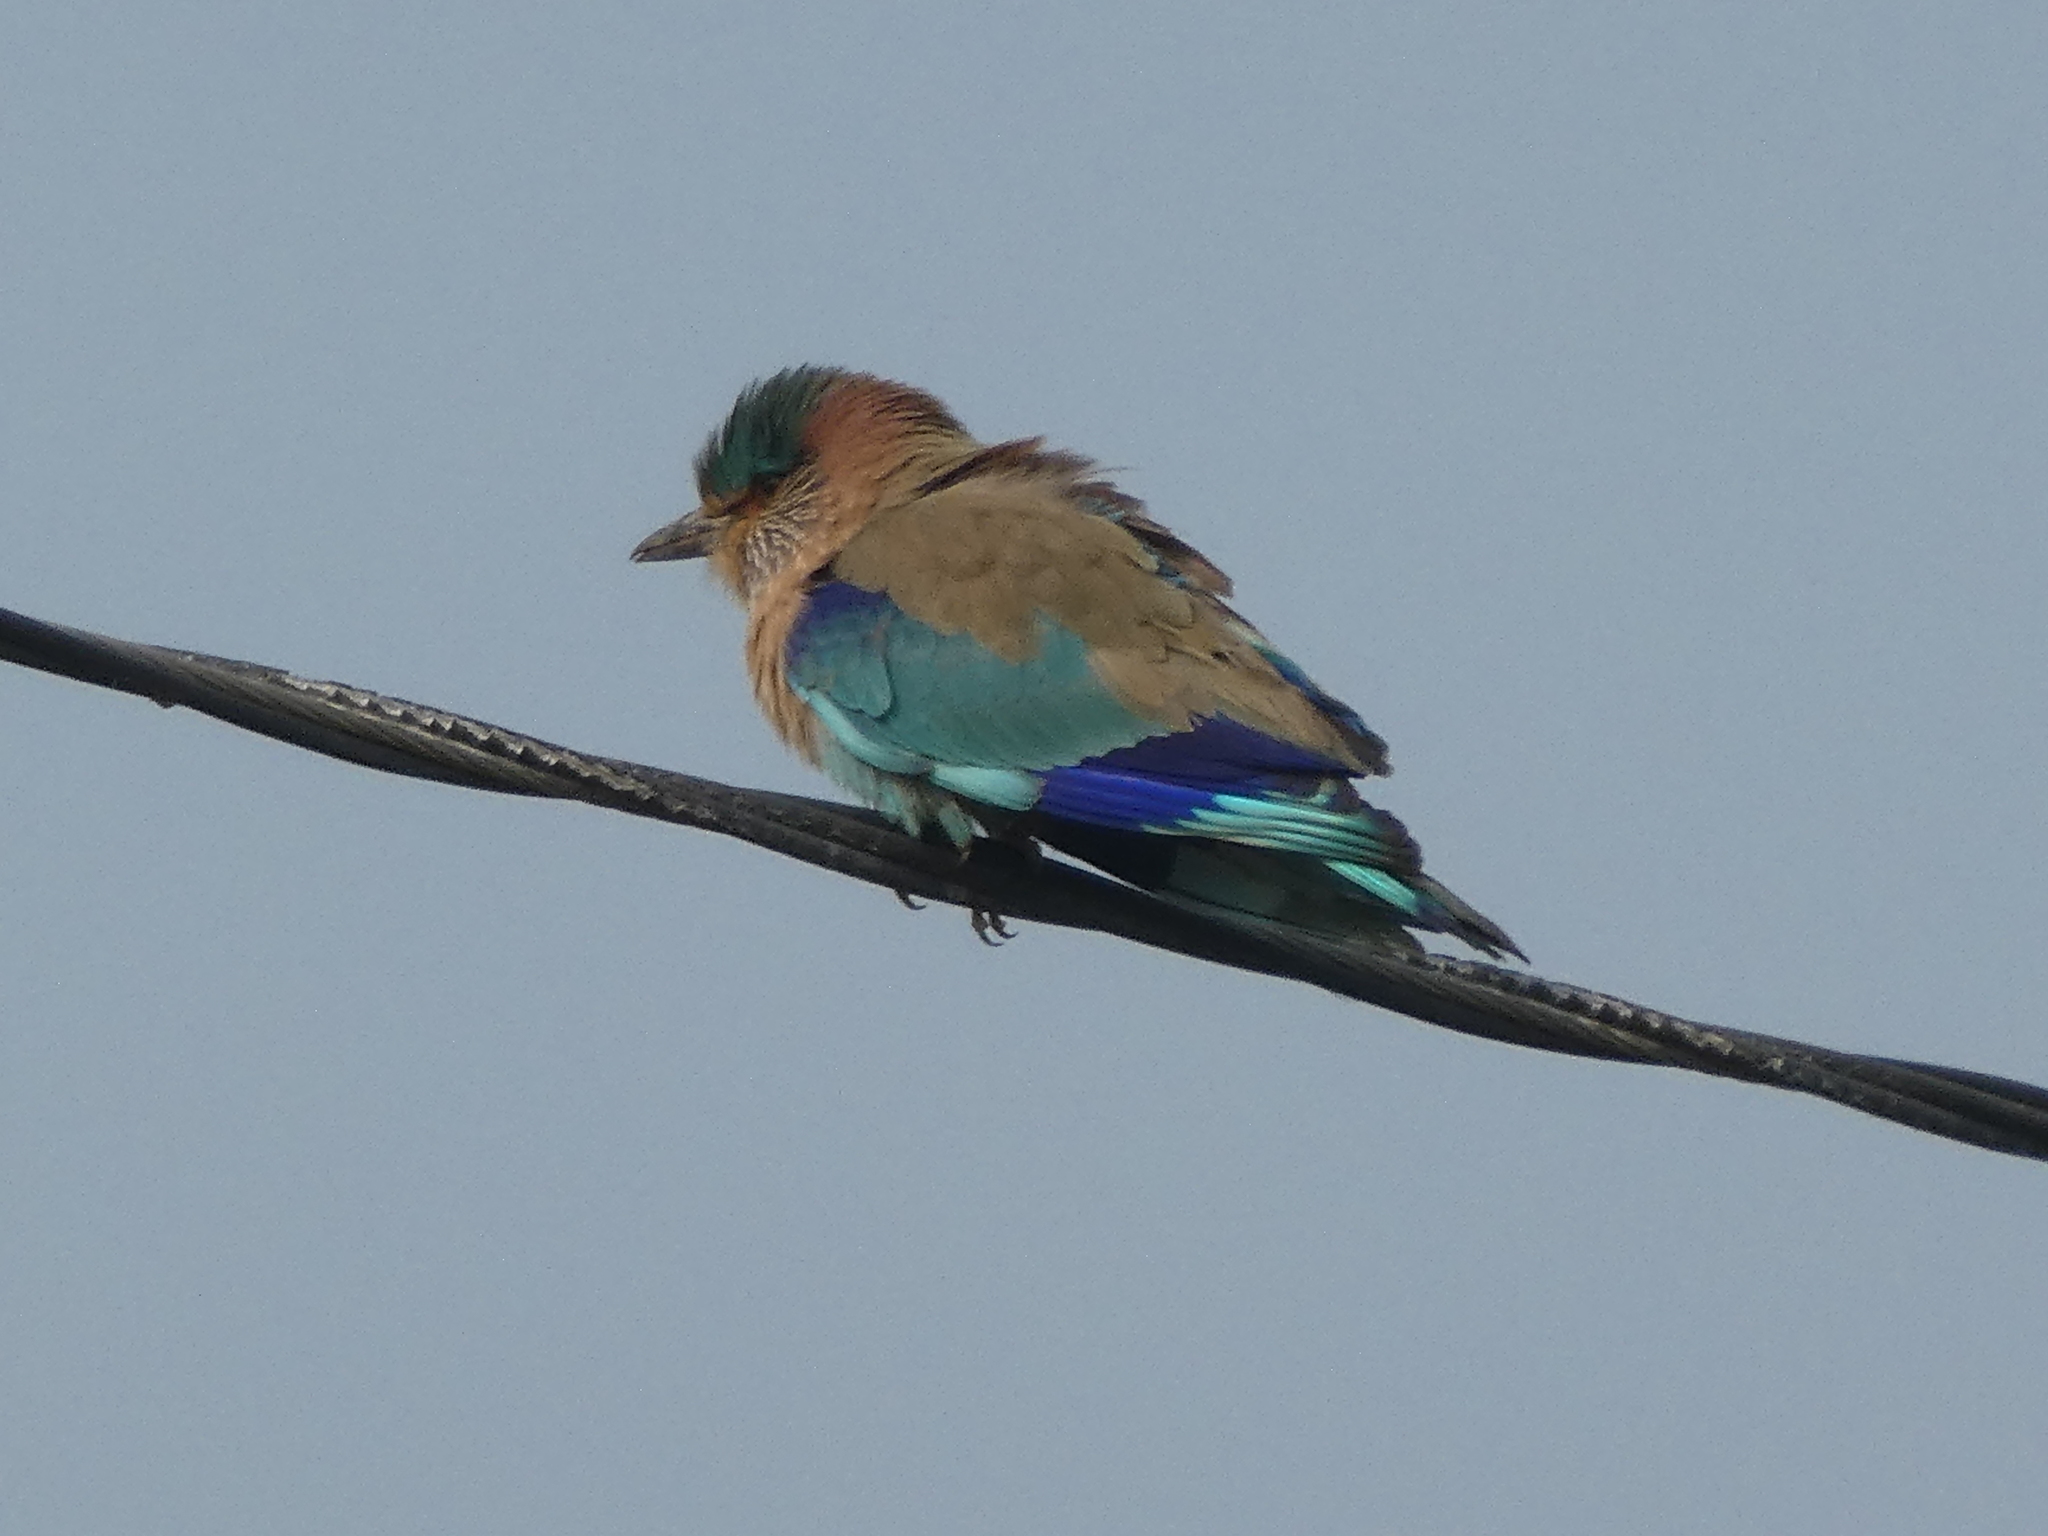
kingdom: Animalia
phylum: Chordata
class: Aves
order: Coraciiformes
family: Coraciidae
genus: Coracias
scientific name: Coracias benghalensis
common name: Indian roller
